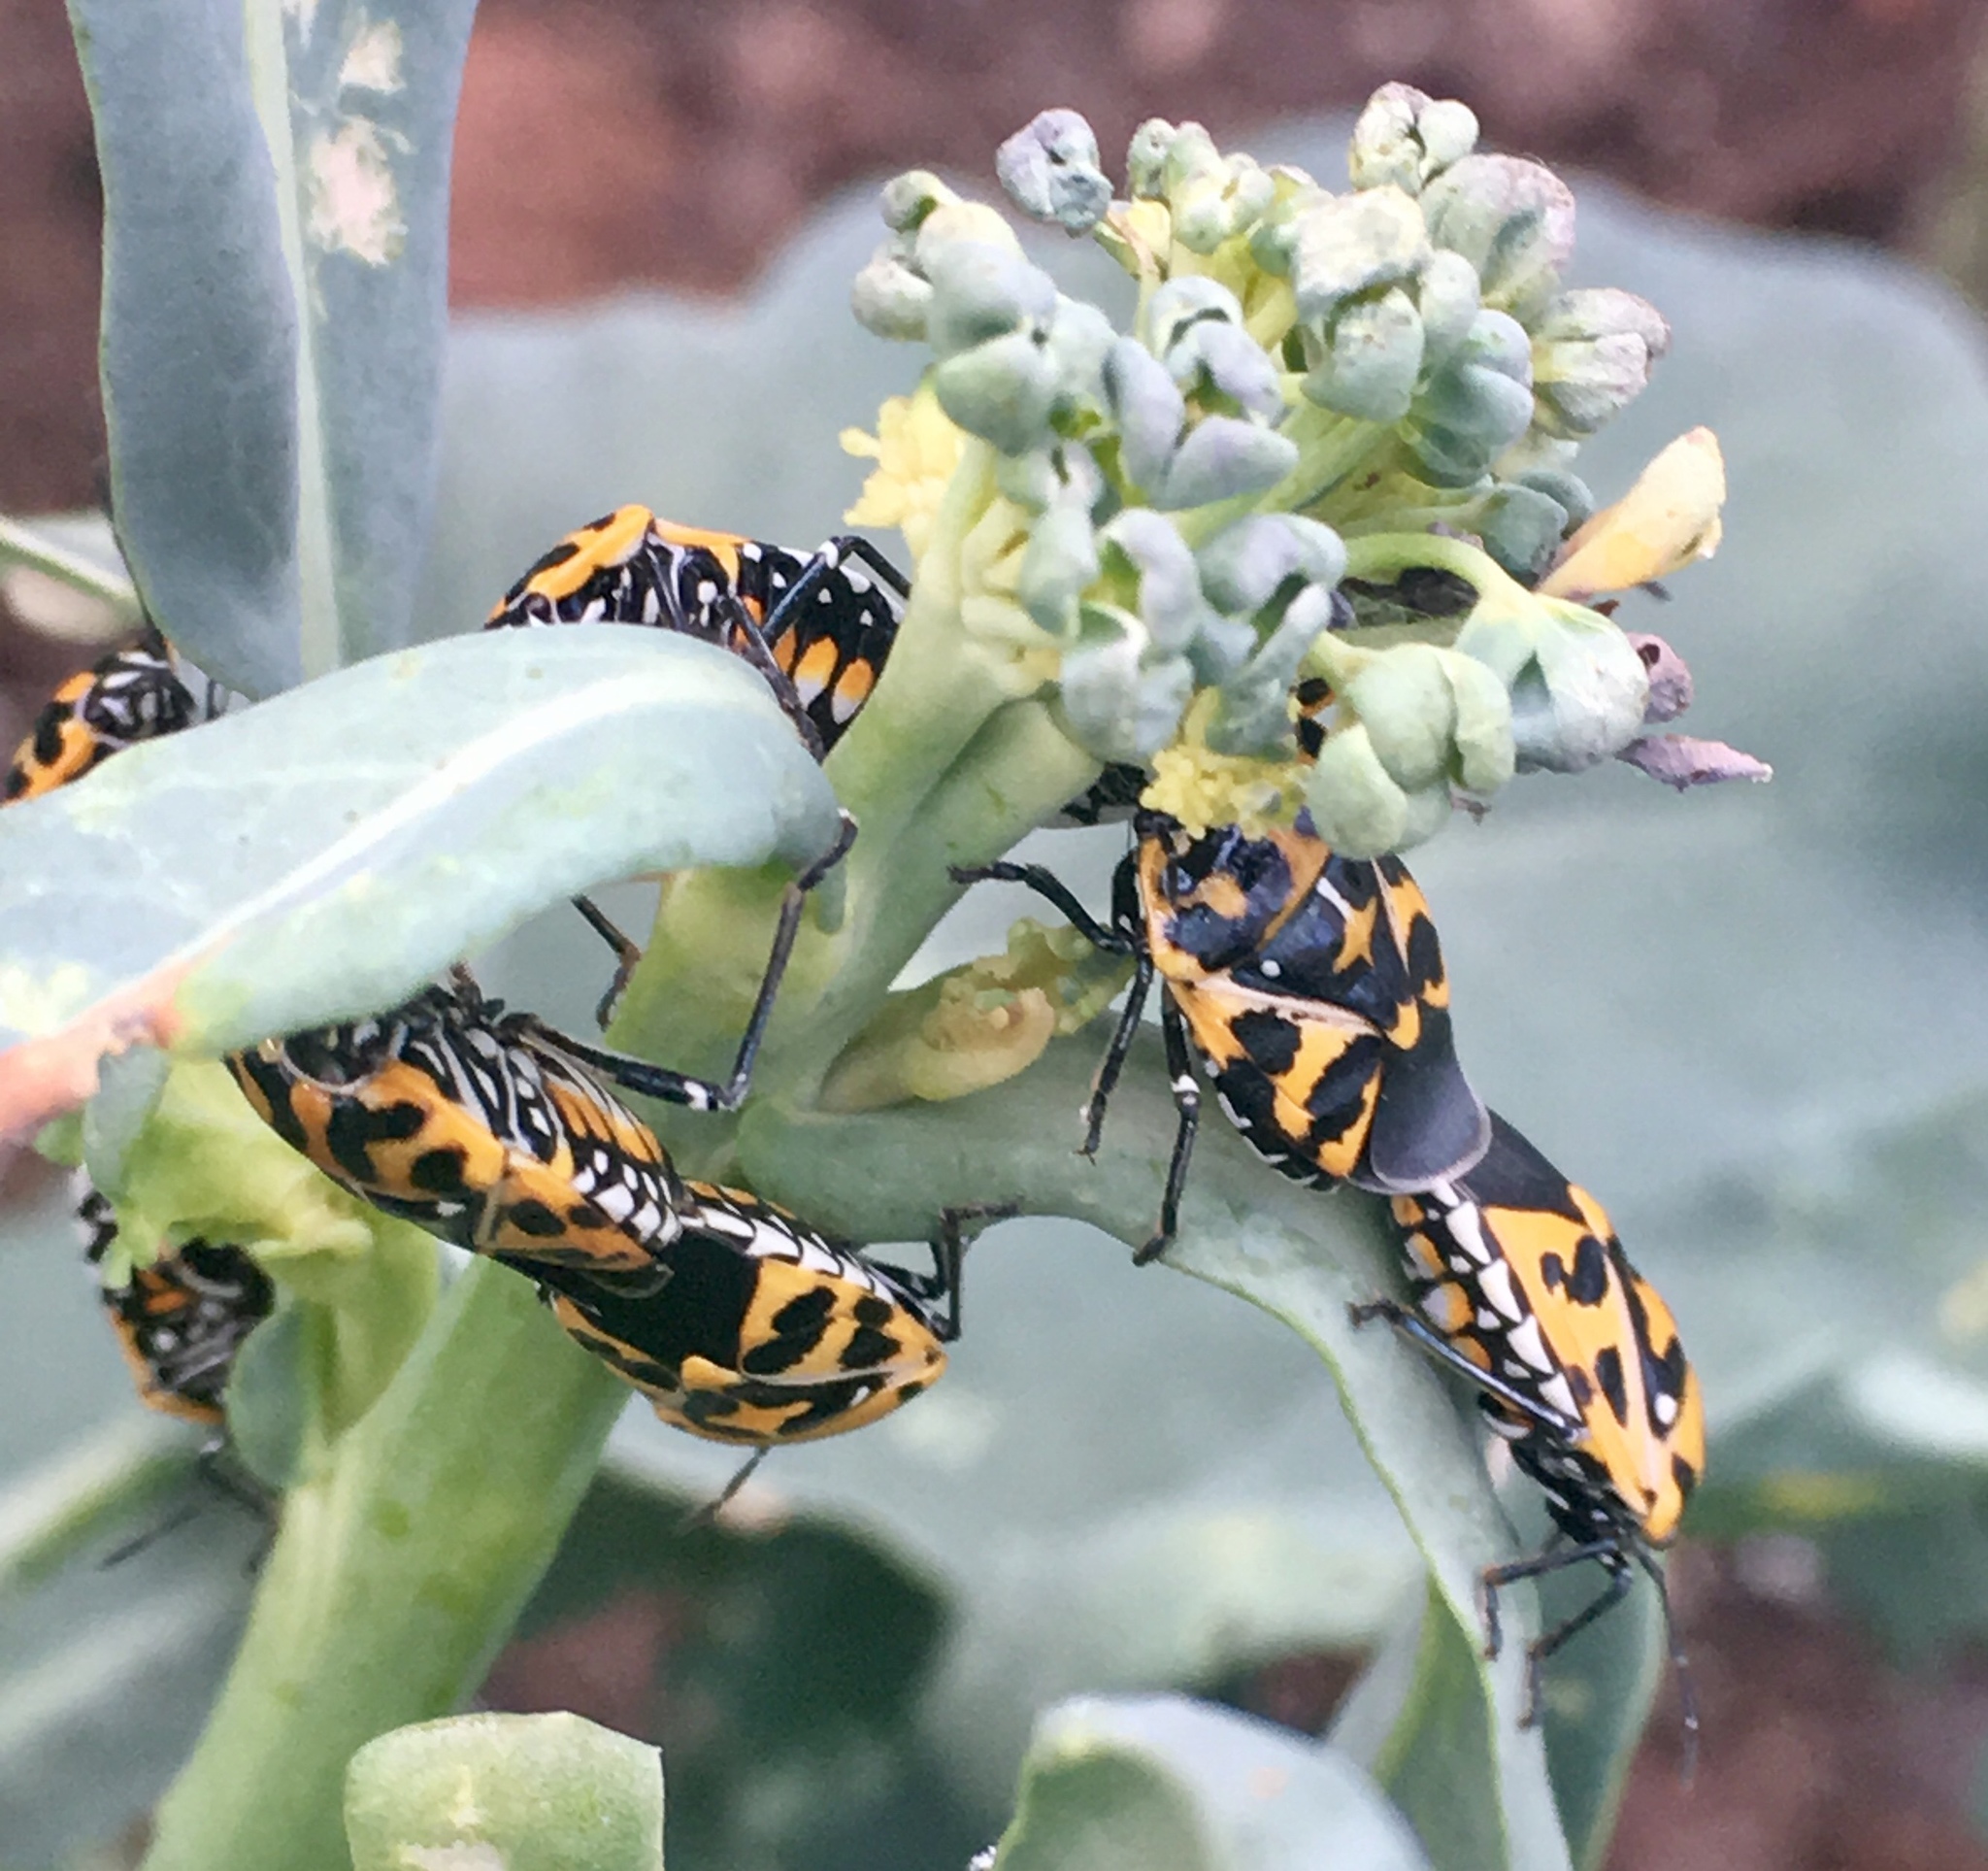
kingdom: Animalia
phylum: Arthropoda
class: Insecta
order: Hemiptera
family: Pentatomidae
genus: Murgantia
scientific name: Murgantia histrionica
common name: Harlequin bug
